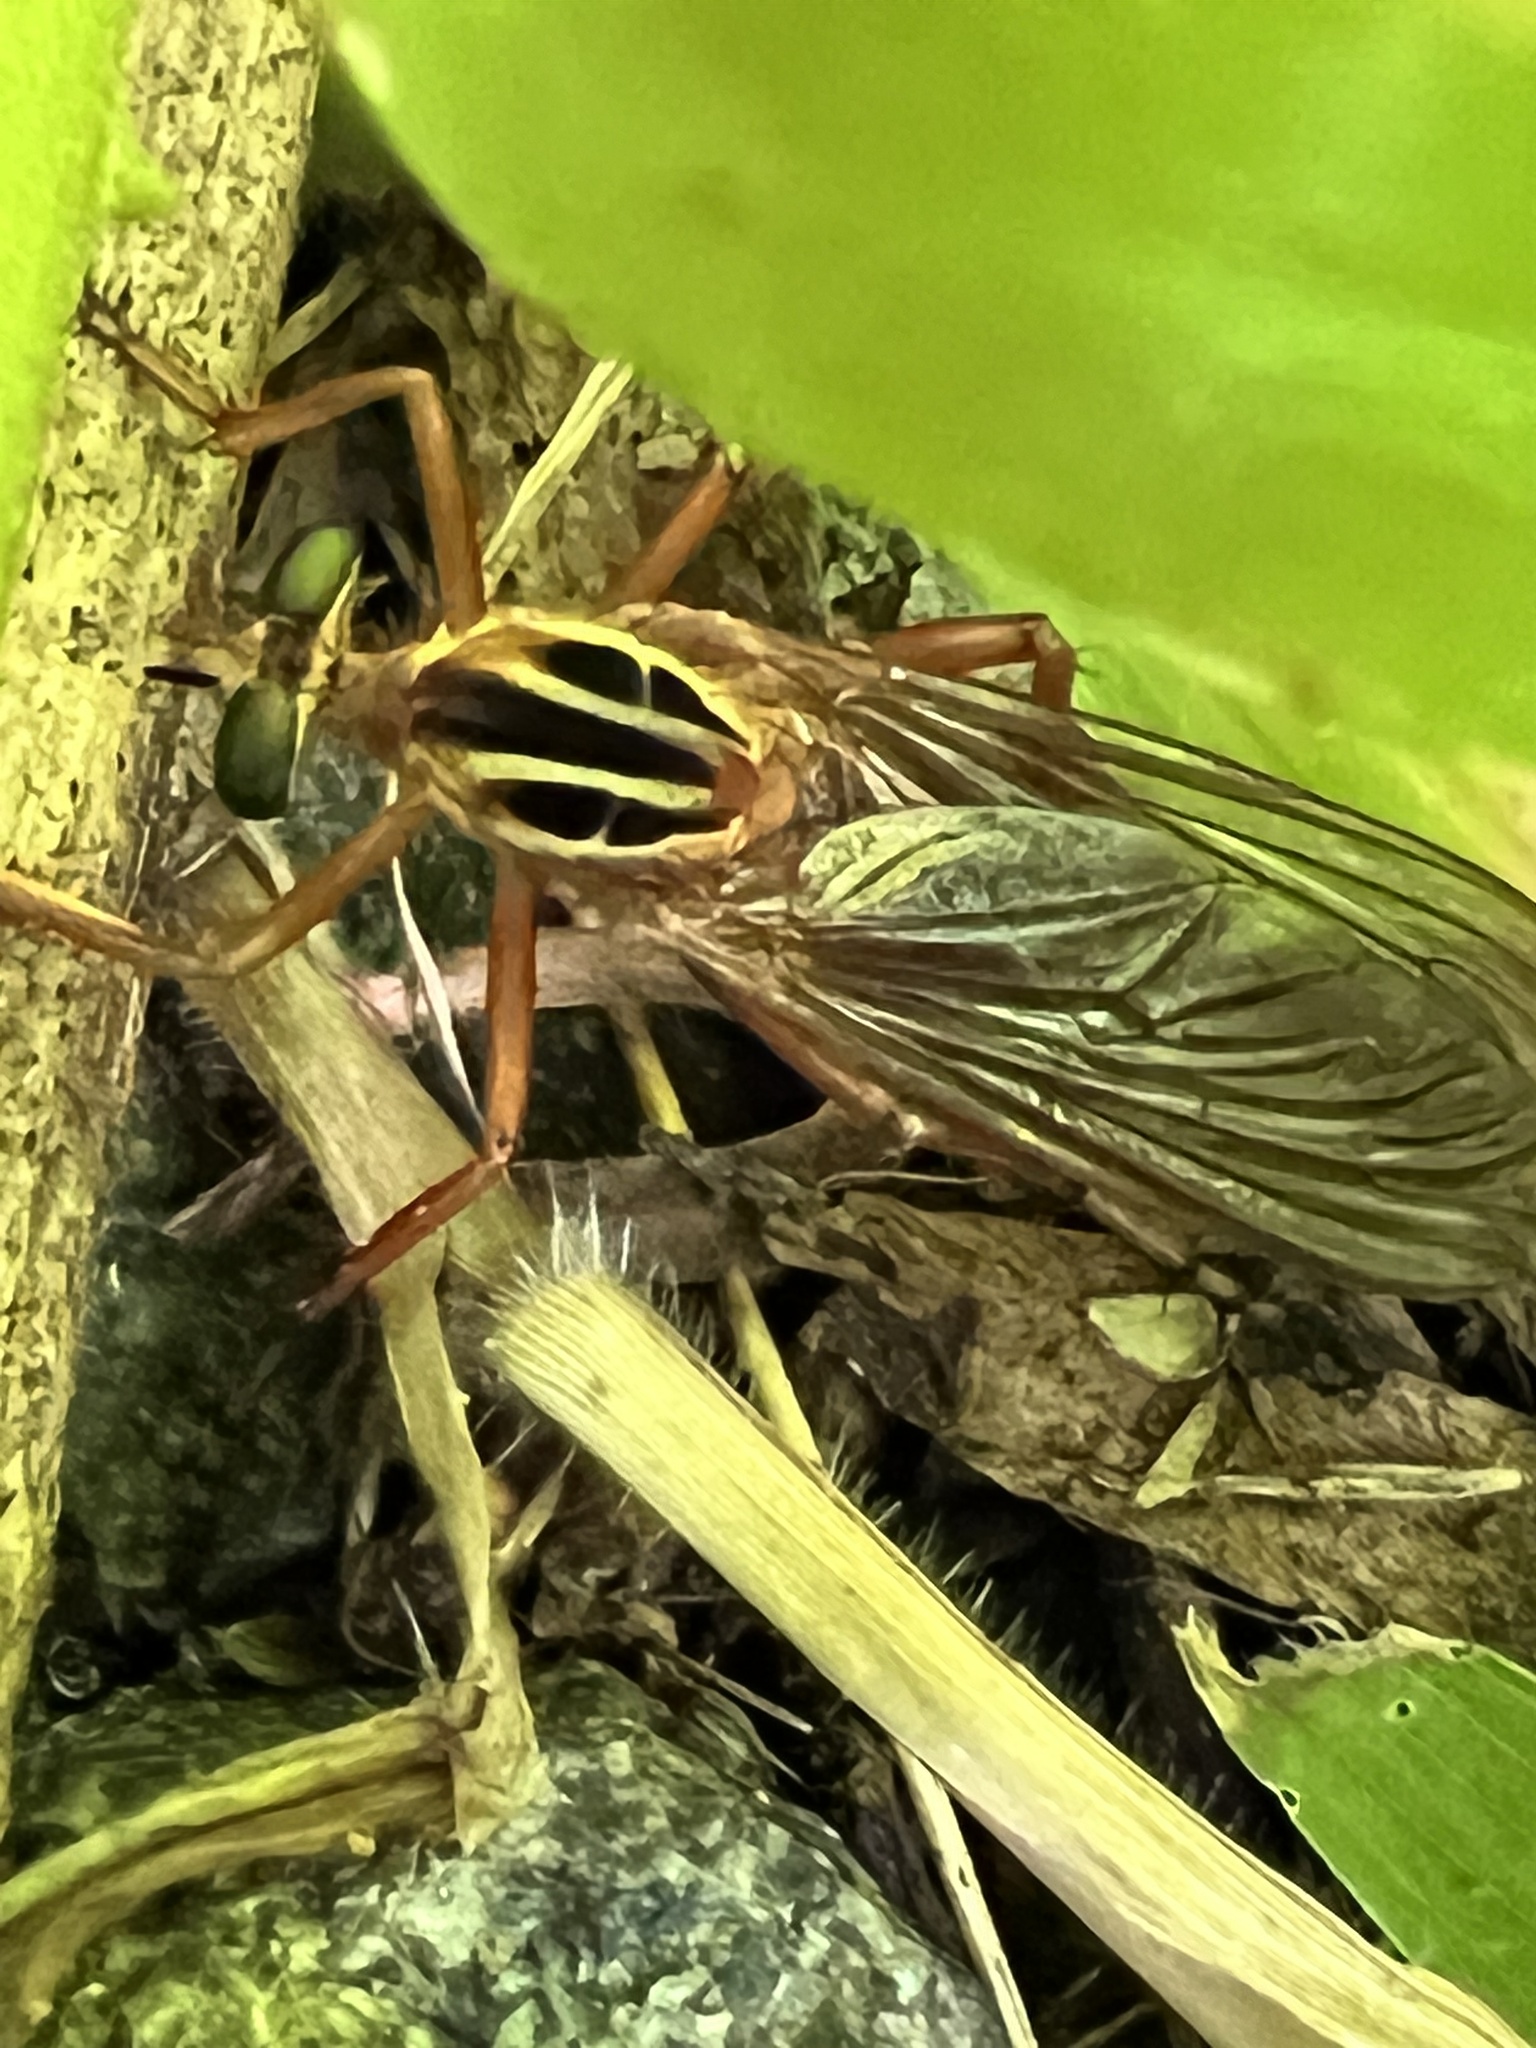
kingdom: Animalia
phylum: Arthropoda
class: Insecta
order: Diptera
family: Asilidae
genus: Diogmites
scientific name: Diogmites neoternatus
